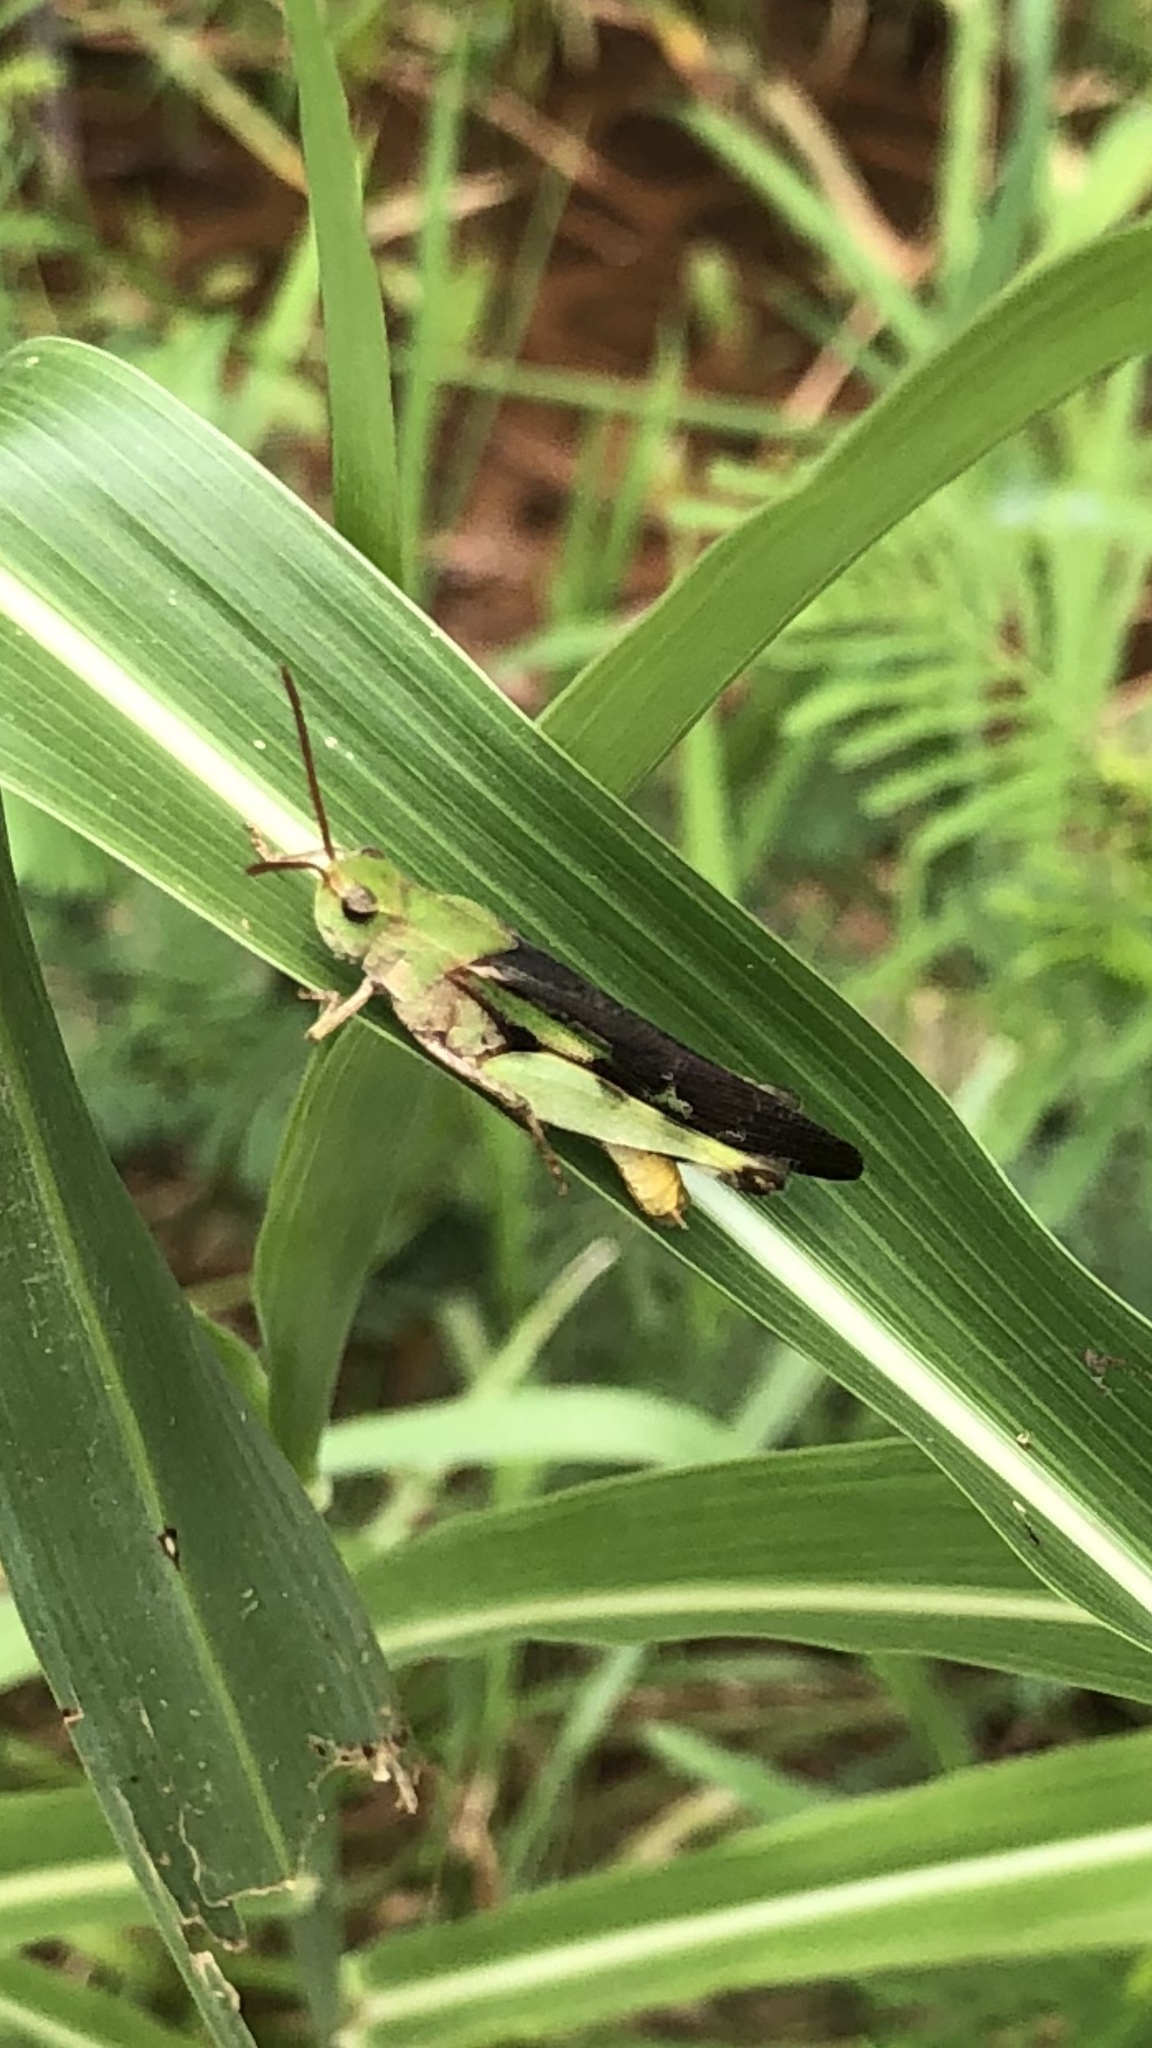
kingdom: Animalia
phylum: Arthropoda
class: Insecta
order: Orthoptera
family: Acrididae
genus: Chortophaga
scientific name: Chortophaga viridifasciata
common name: Green-striped grasshopper
